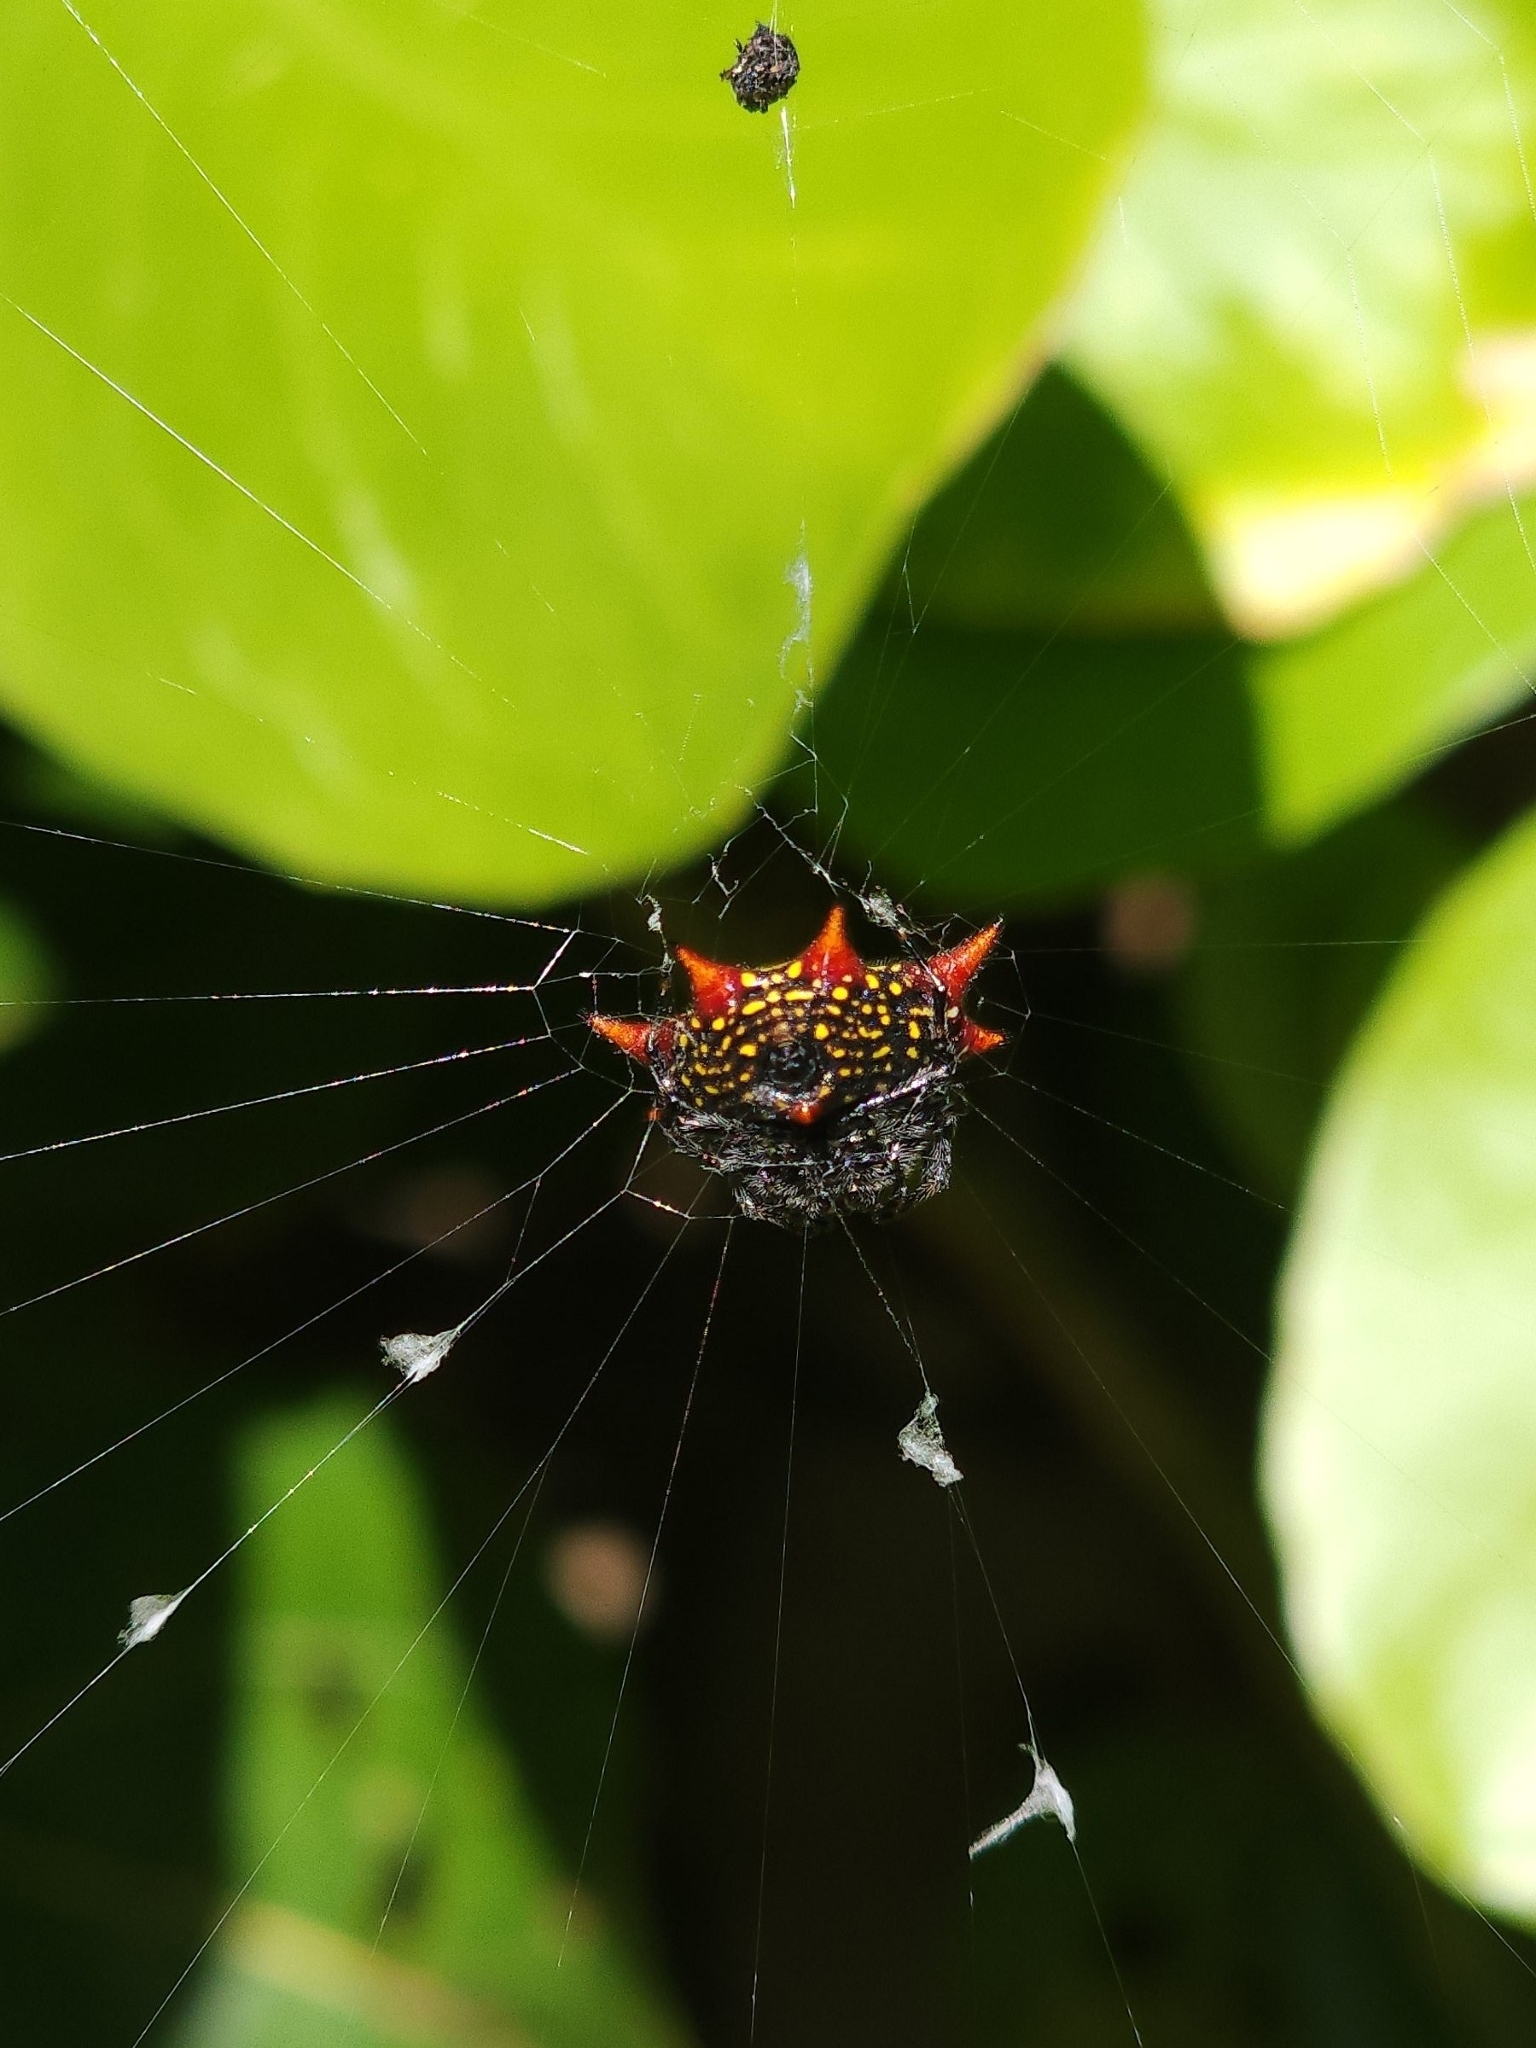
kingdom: Animalia
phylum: Arthropoda
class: Arachnida
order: Araneae
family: Araneidae
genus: Gasteracantha
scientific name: Gasteracantha cancriformis
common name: Orb weavers
